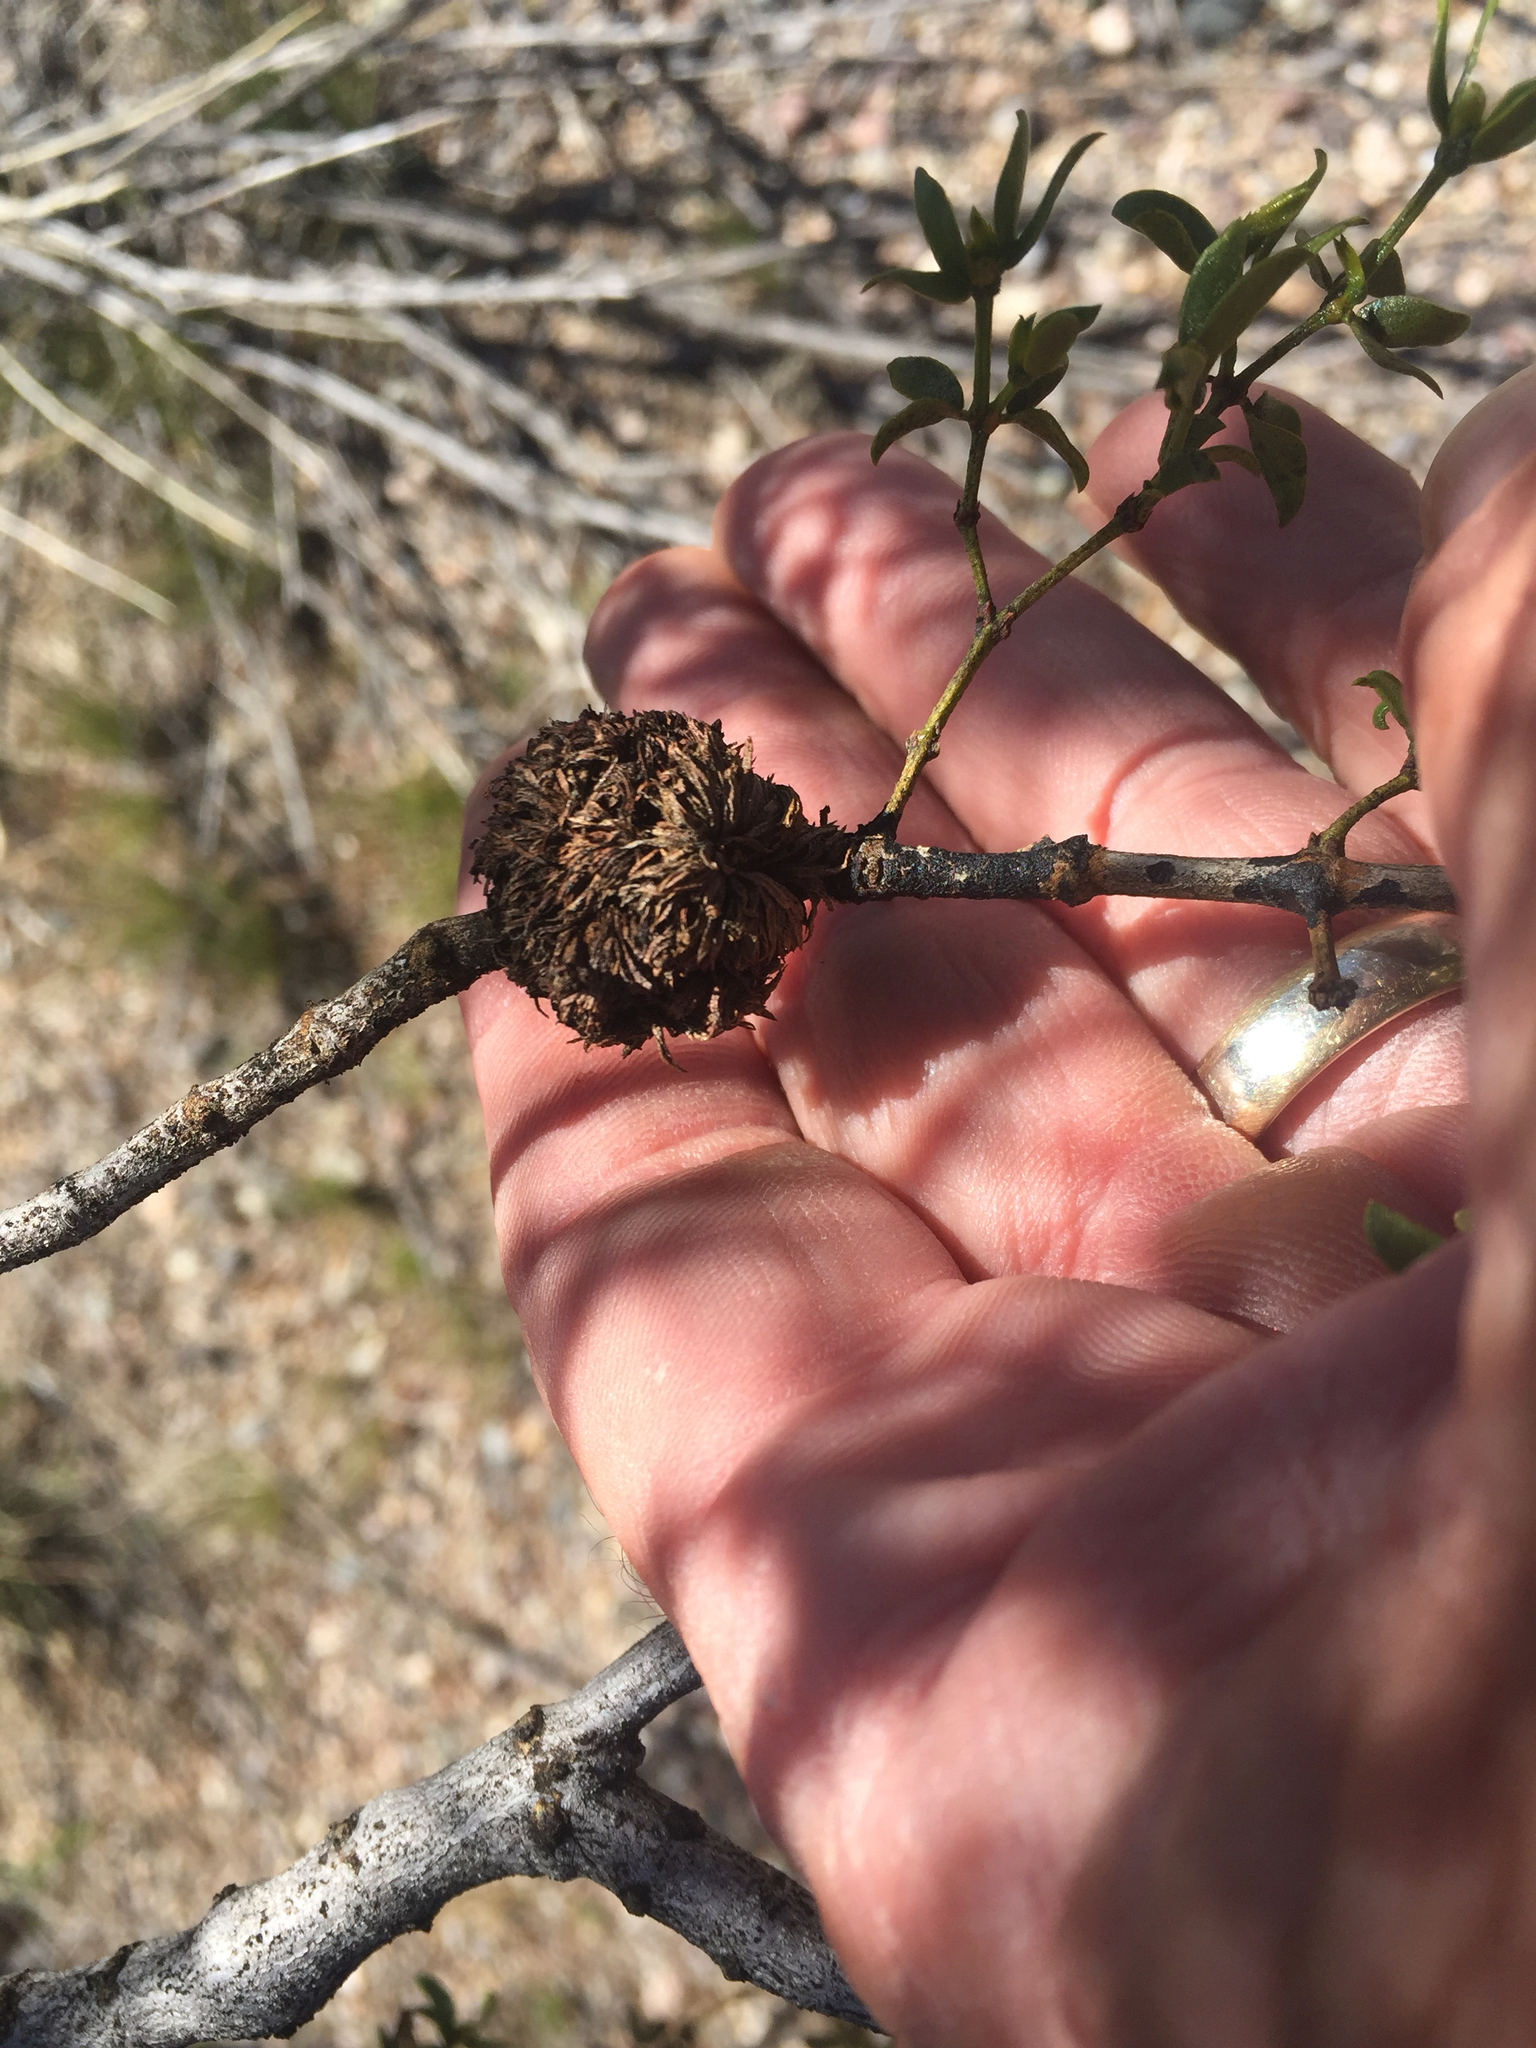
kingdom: Animalia
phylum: Arthropoda
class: Insecta
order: Diptera
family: Cecidomyiidae
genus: Asphondylia
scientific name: Asphondylia auripila
